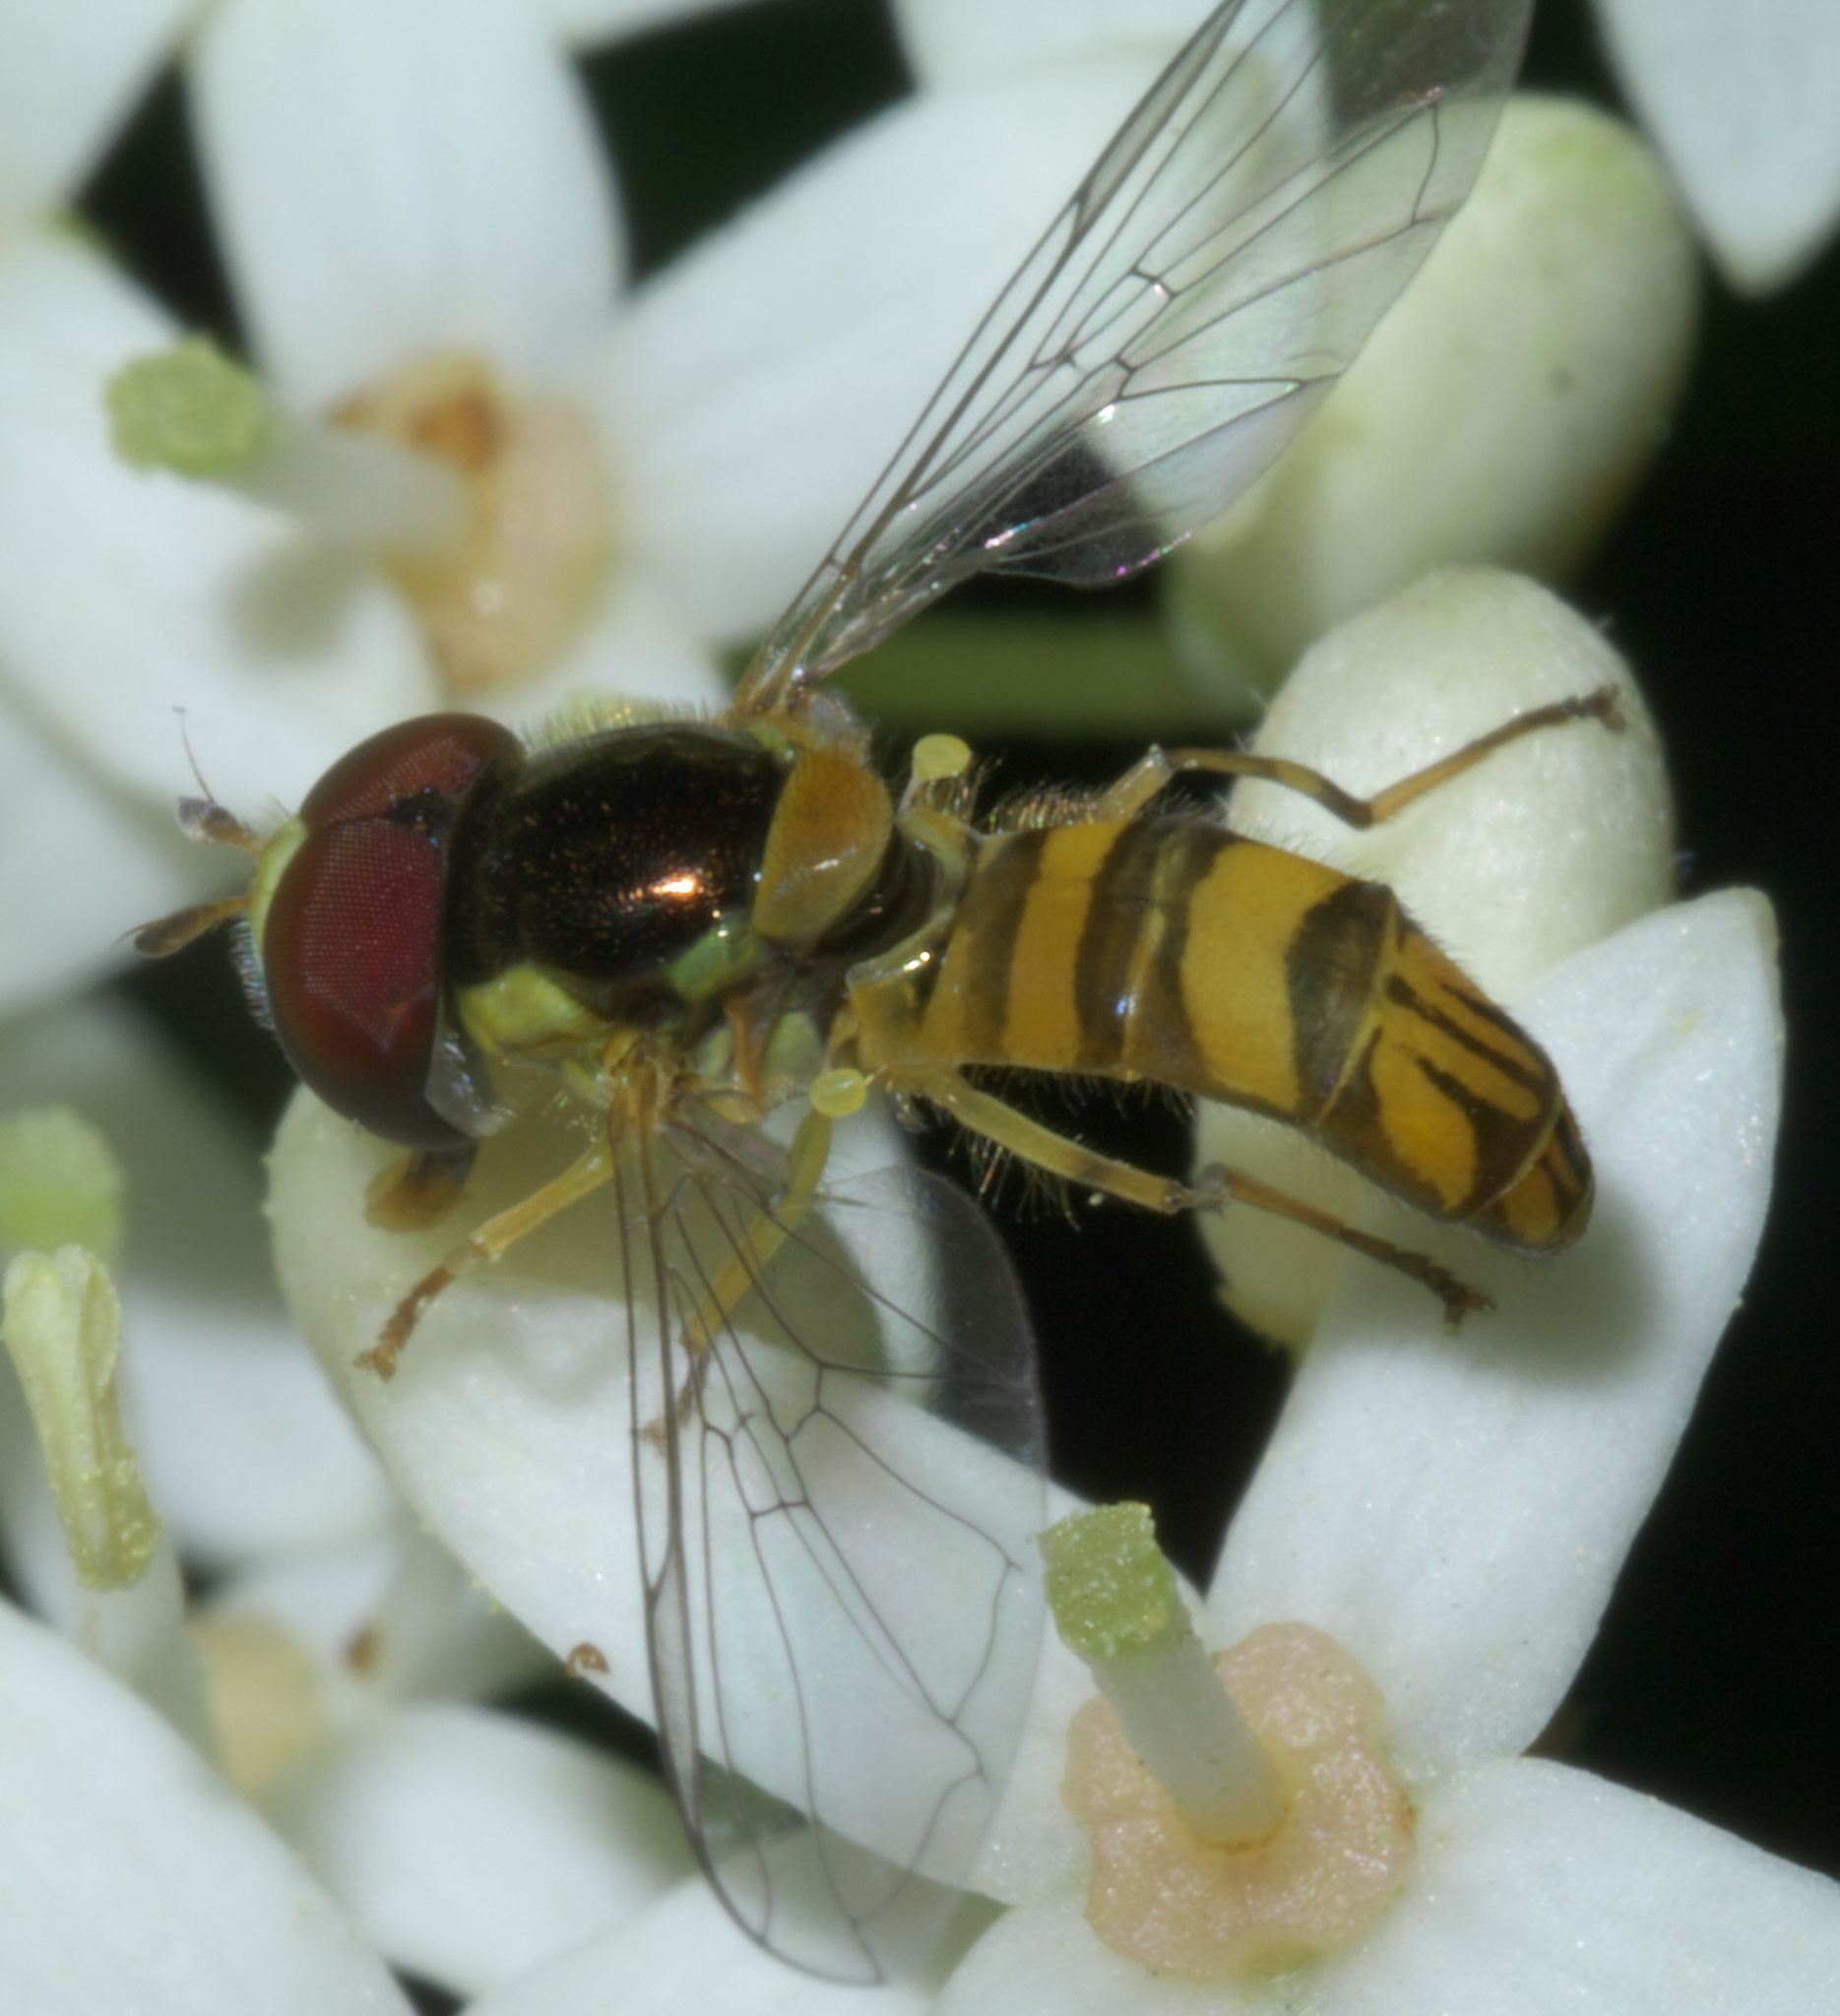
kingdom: Animalia
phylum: Arthropoda
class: Insecta
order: Diptera
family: Syrphidae
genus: Allograpta
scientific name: Allograpta obliqua
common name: Common oblique syrphid
